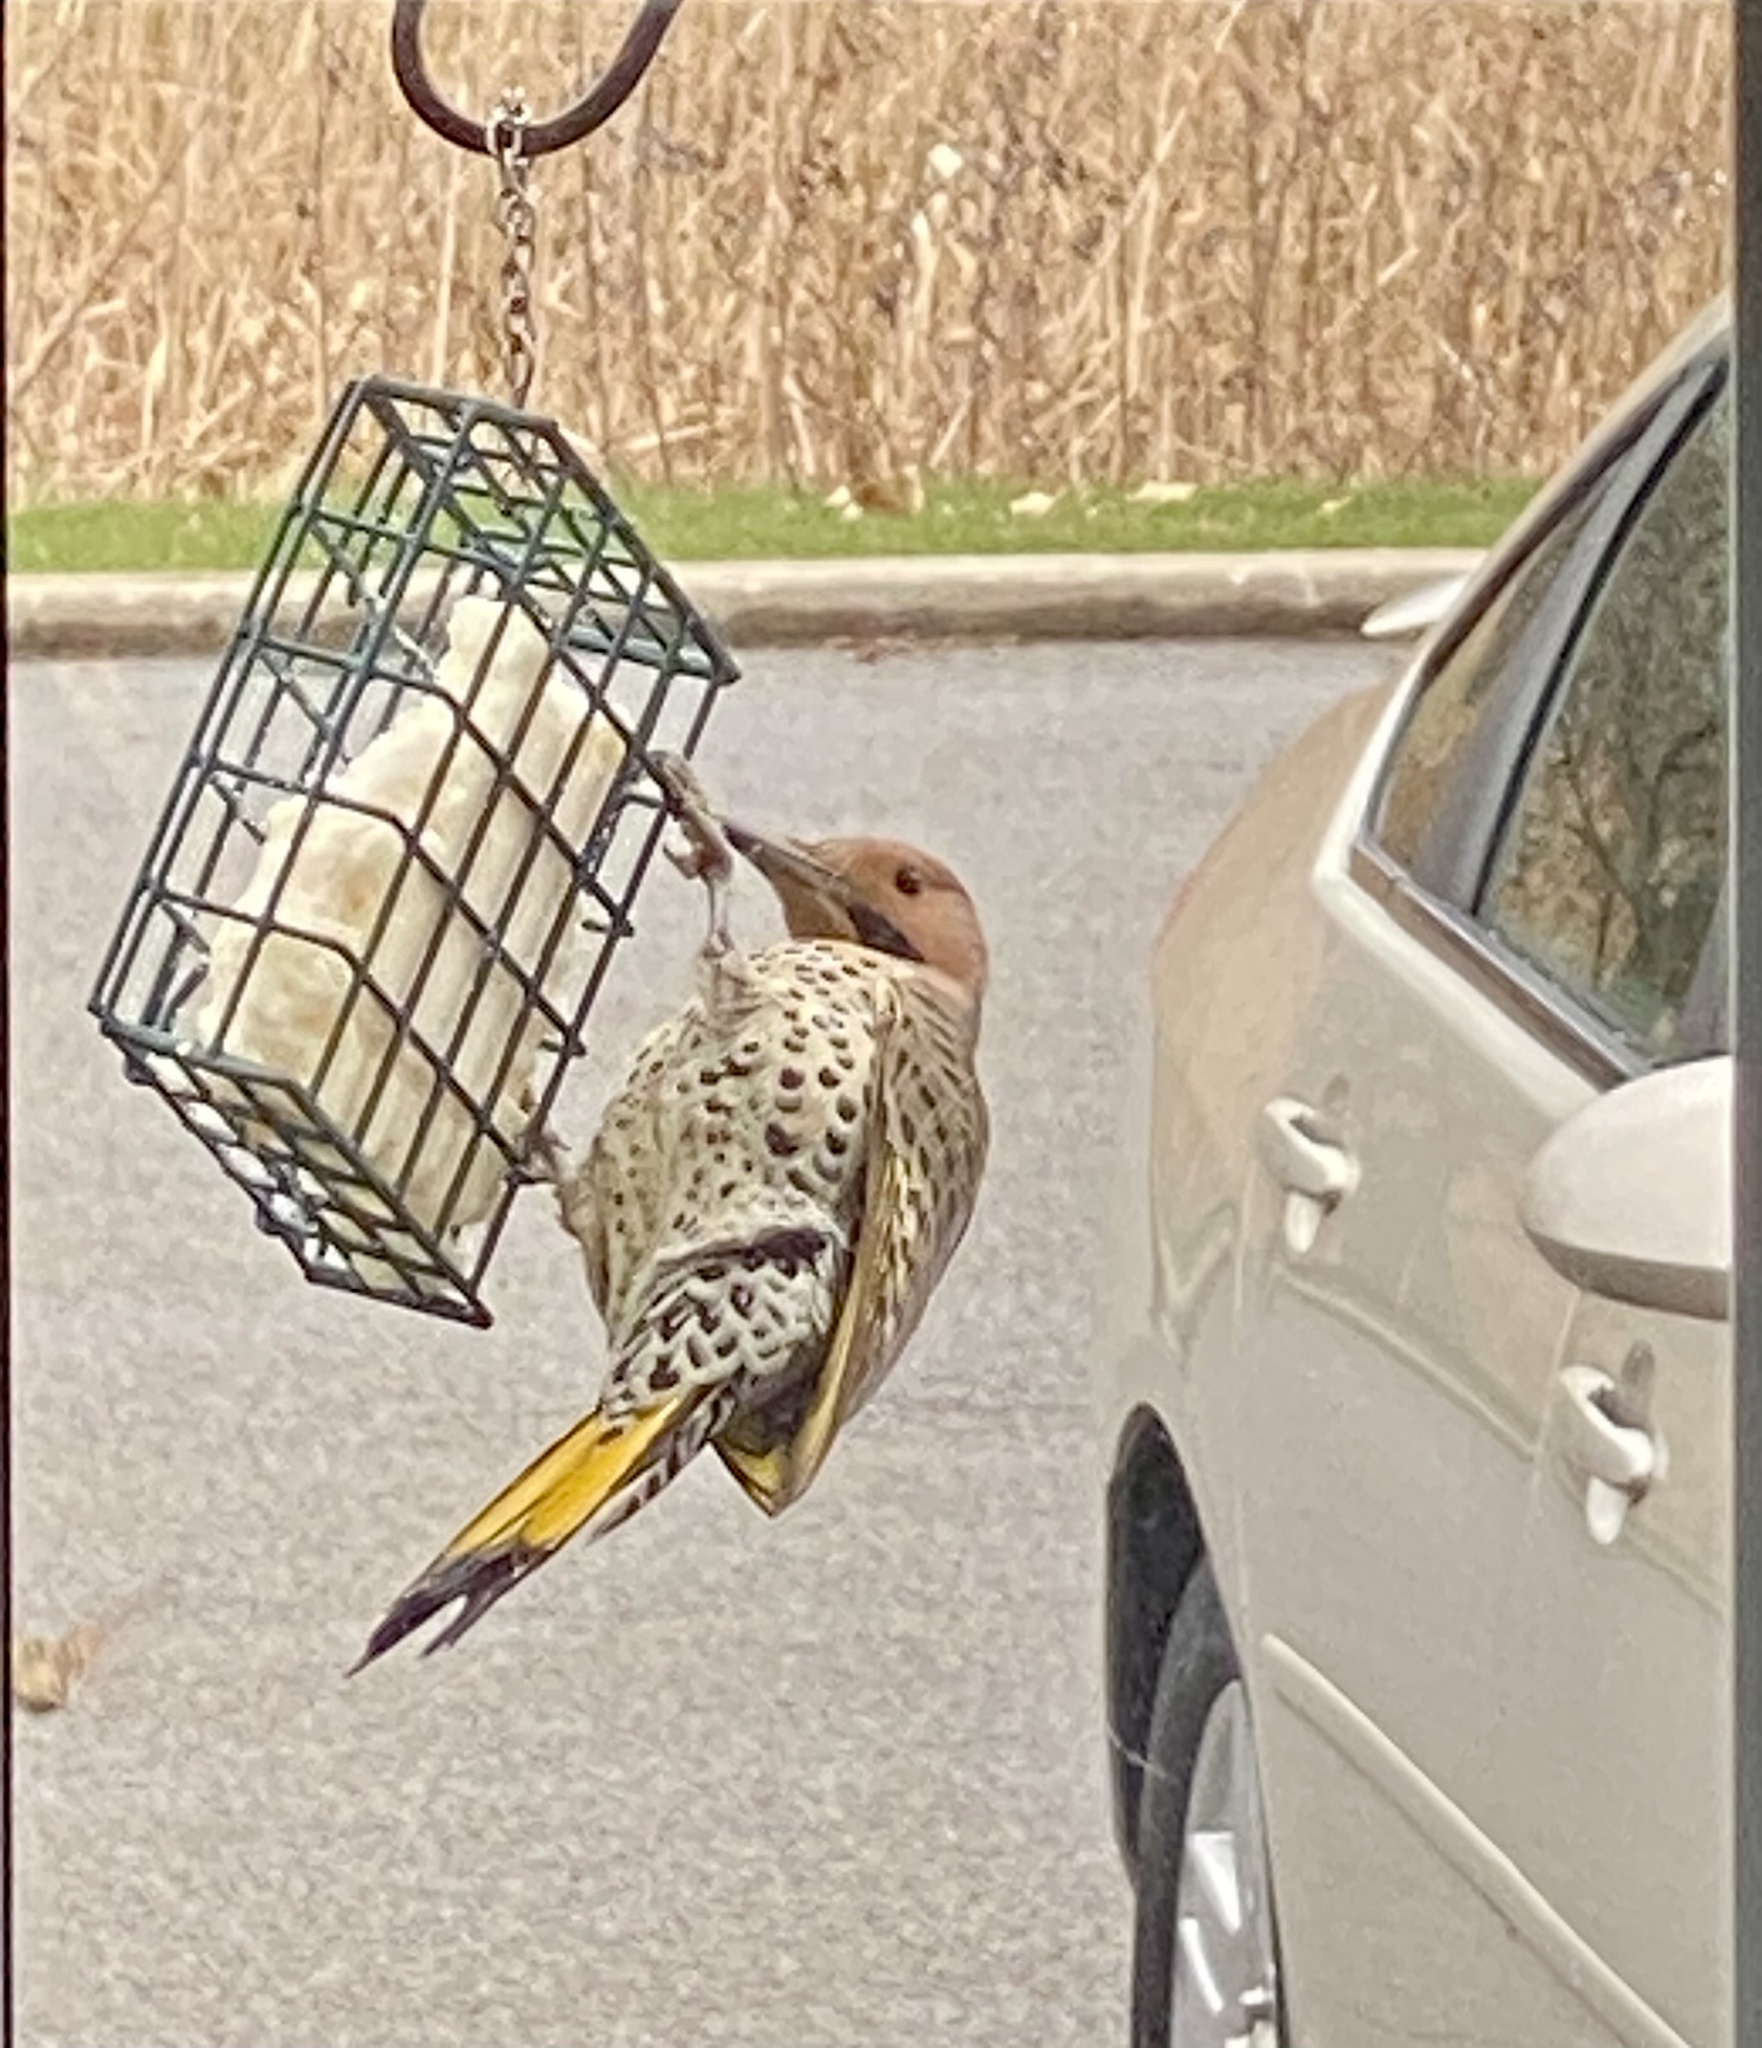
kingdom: Animalia
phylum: Chordata
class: Aves
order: Piciformes
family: Picidae
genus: Colaptes
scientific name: Colaptes auratus
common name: Northern flicker
